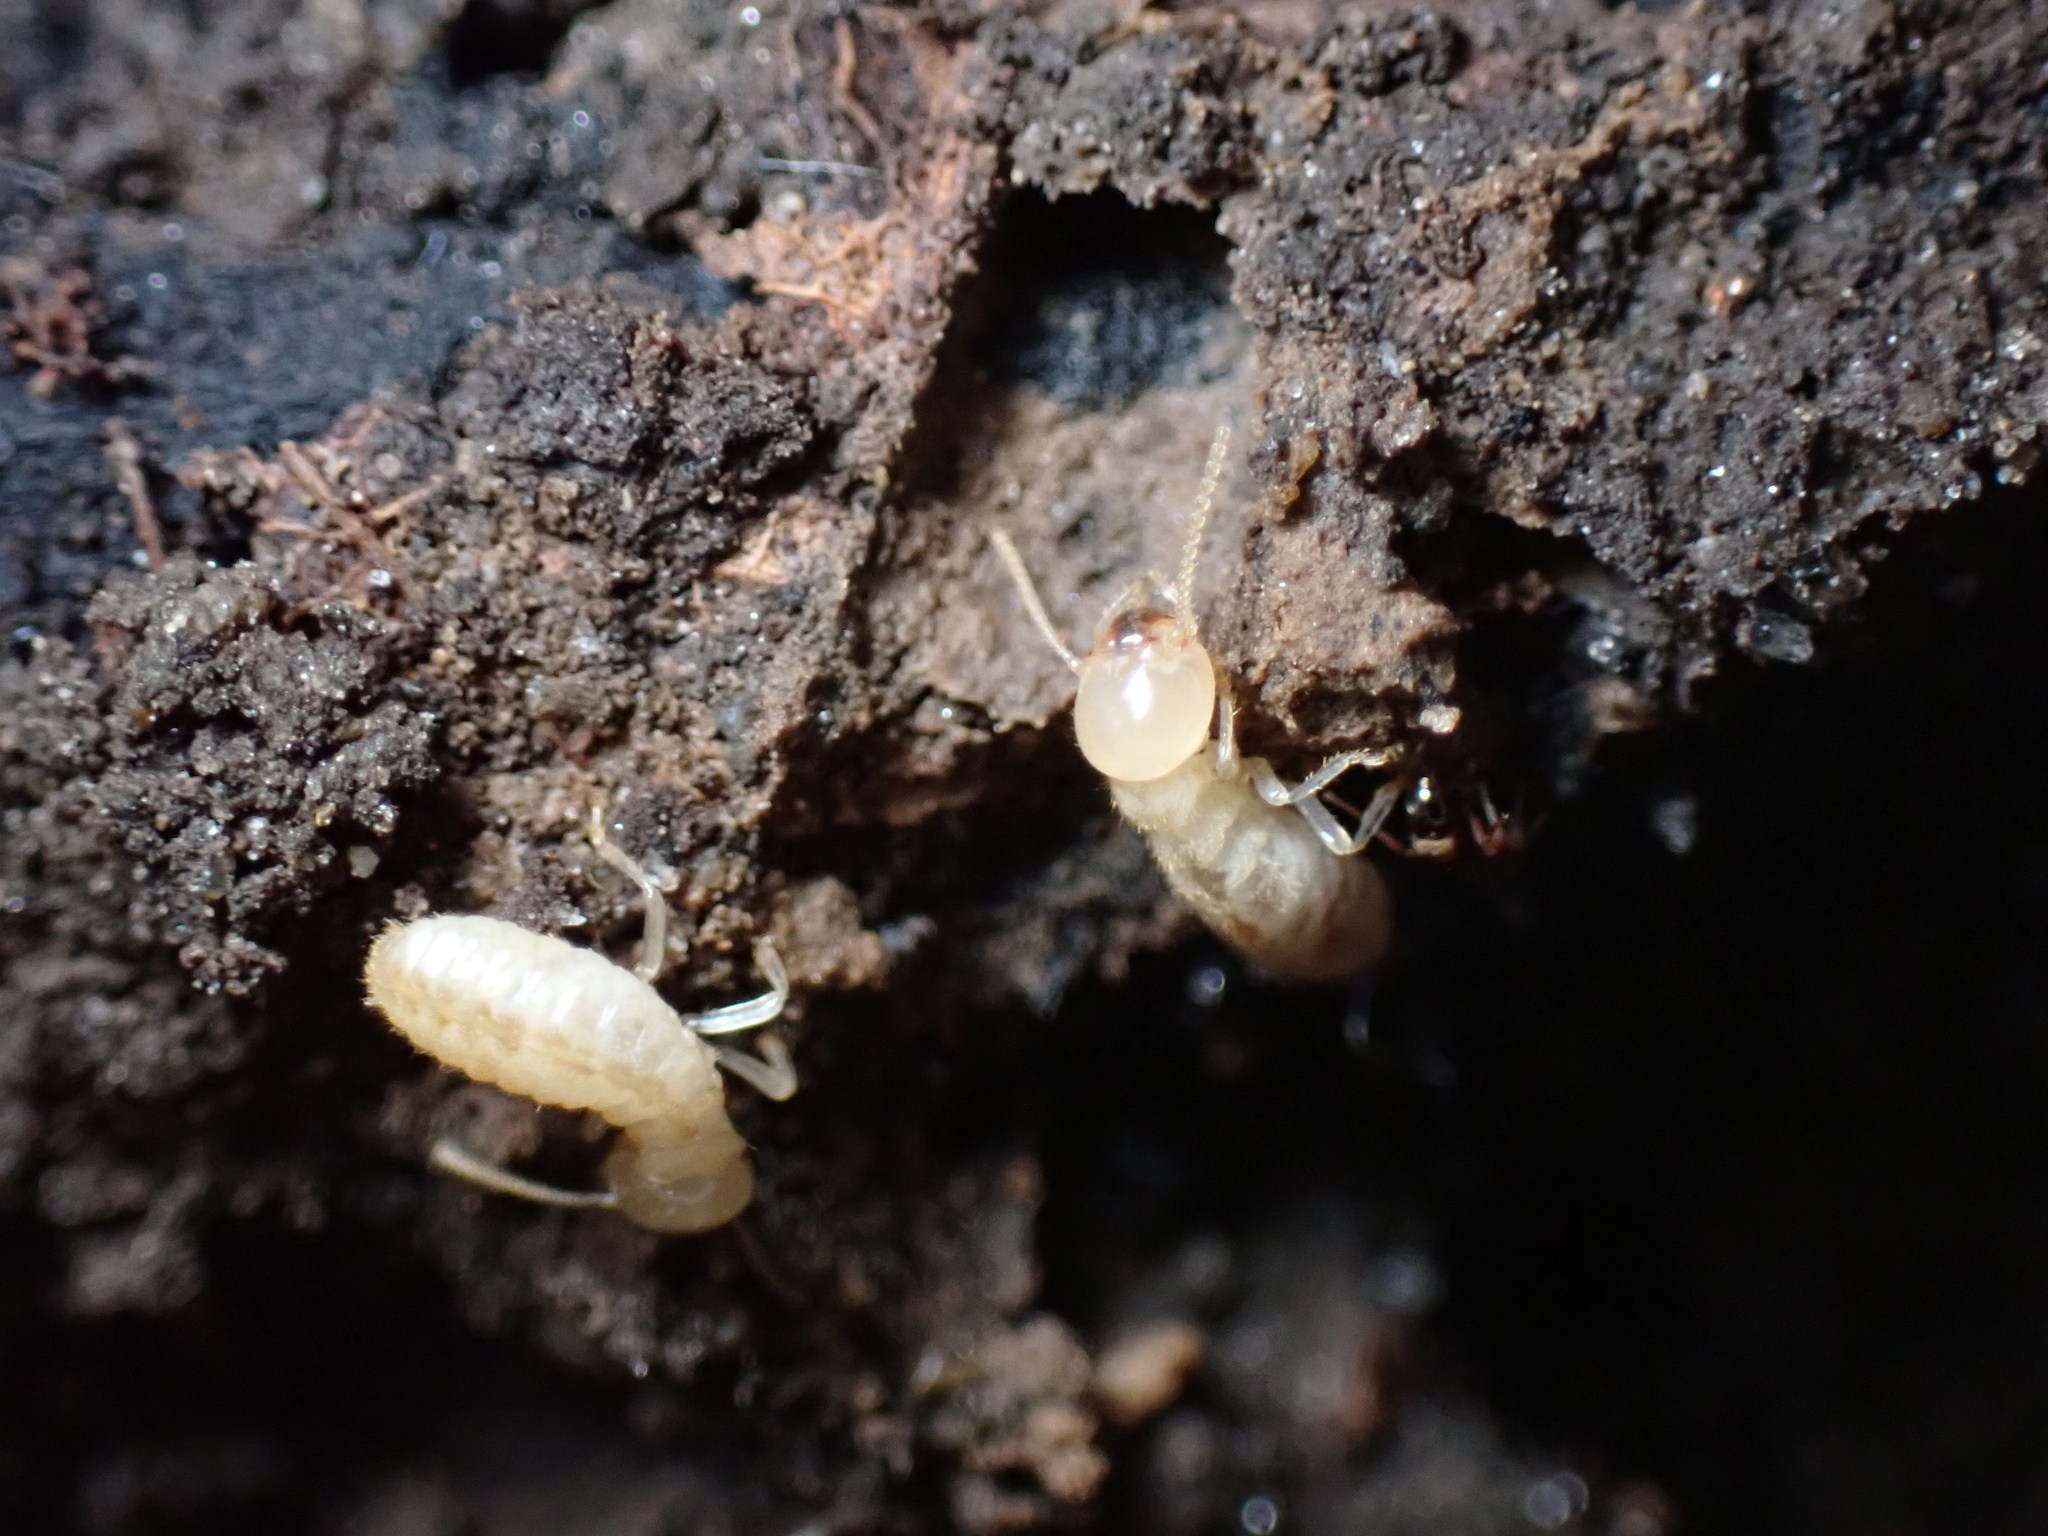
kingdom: Animalia
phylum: Arthropoda
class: Insecta
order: Blattodea
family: Rhinotermitidae
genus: Reticulitermes
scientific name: Reticulitermes flavipes
